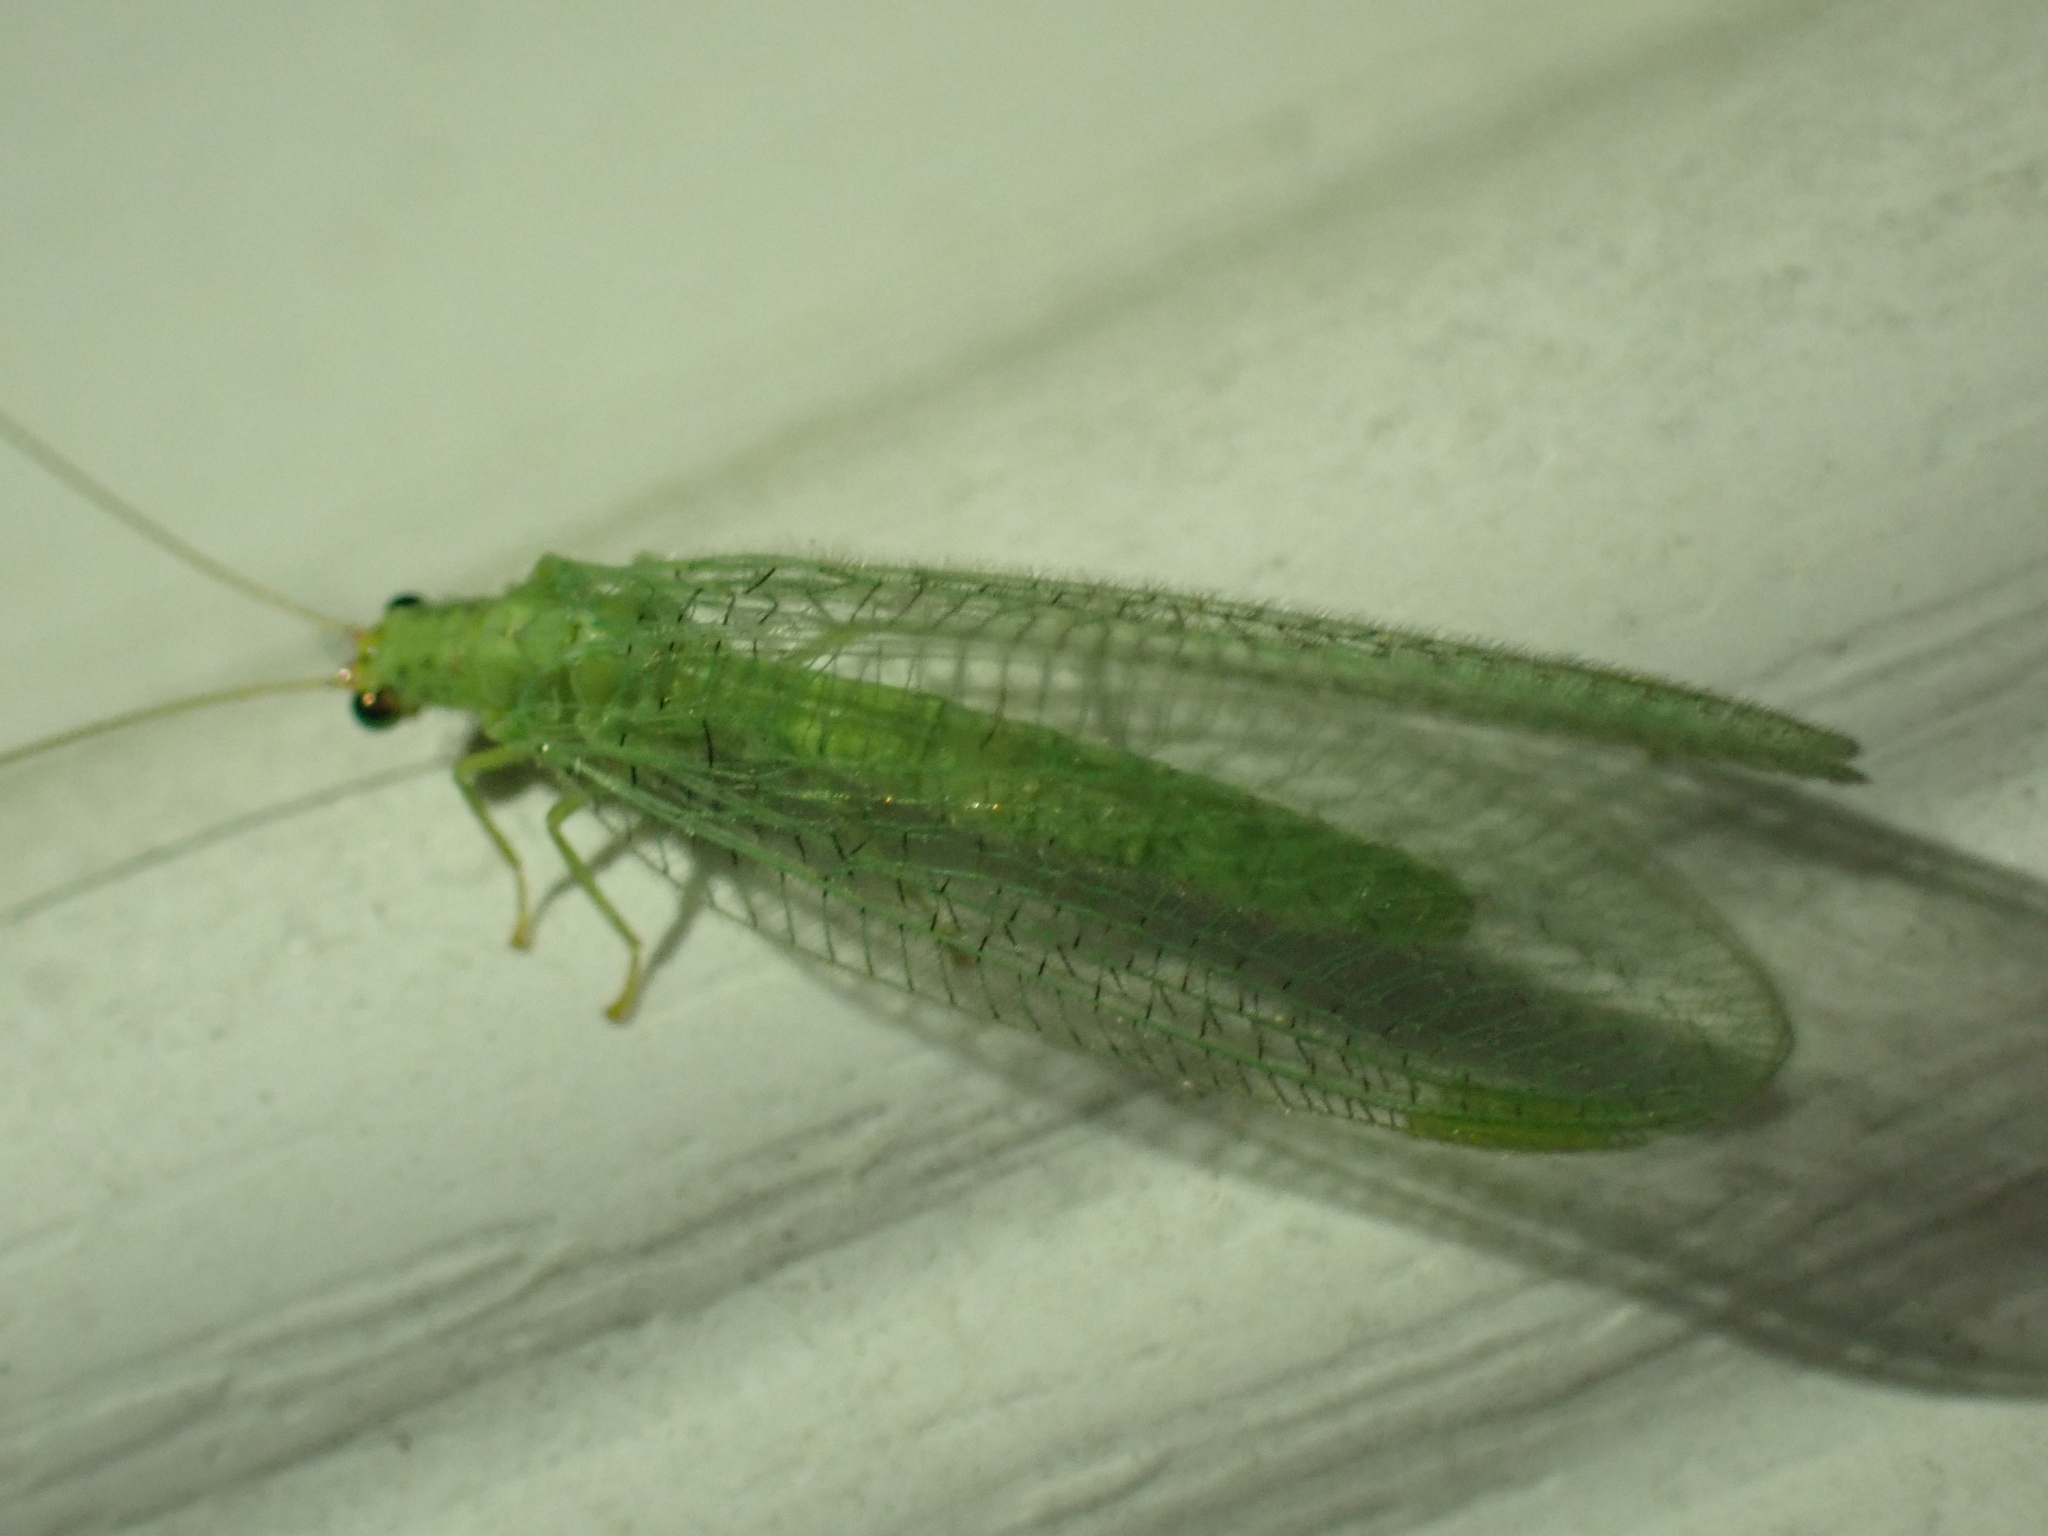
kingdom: Animalia
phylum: Arthropoda
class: Insecta
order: Neuroptera
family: Chrysopidae
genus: Chrysopa
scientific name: Chrysopa oculata
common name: Golden-eyed lacewing
